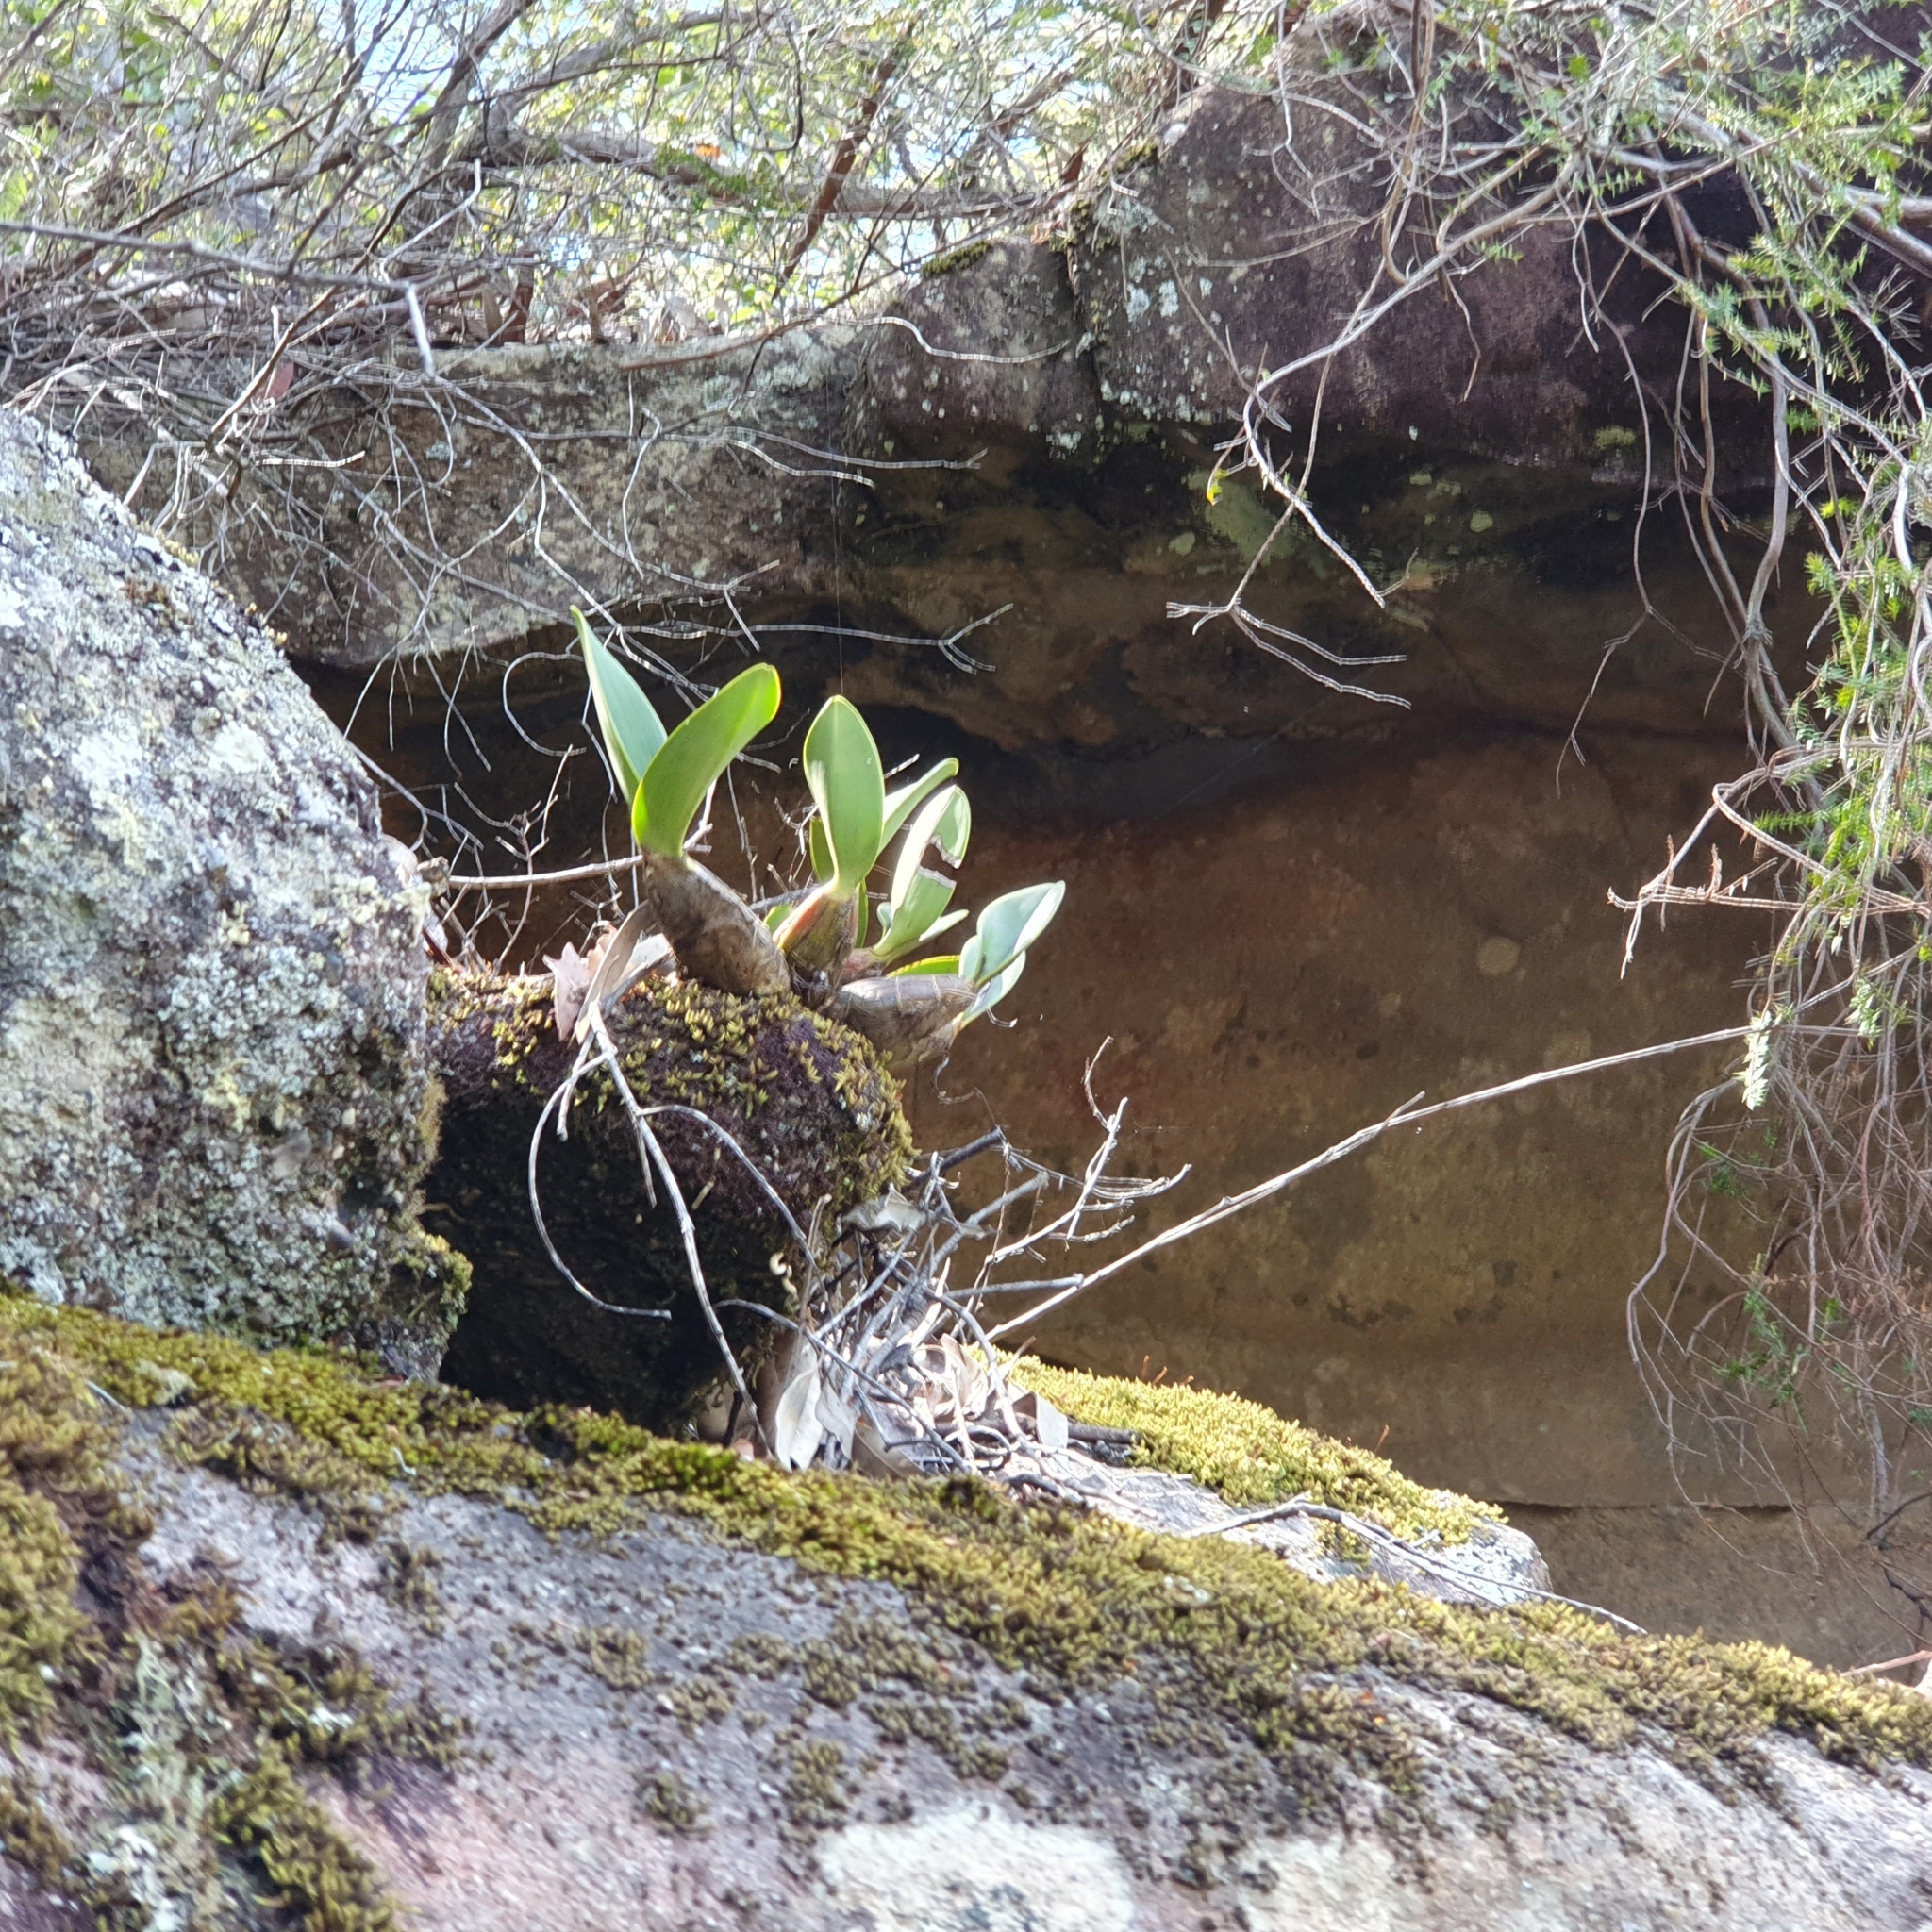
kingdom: Plantae
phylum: Tracheophyta
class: Liliopsida
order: Asparagales
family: Orchidaceae
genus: Dendrobium
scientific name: Dendrobium speciosum
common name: Rock-lily
